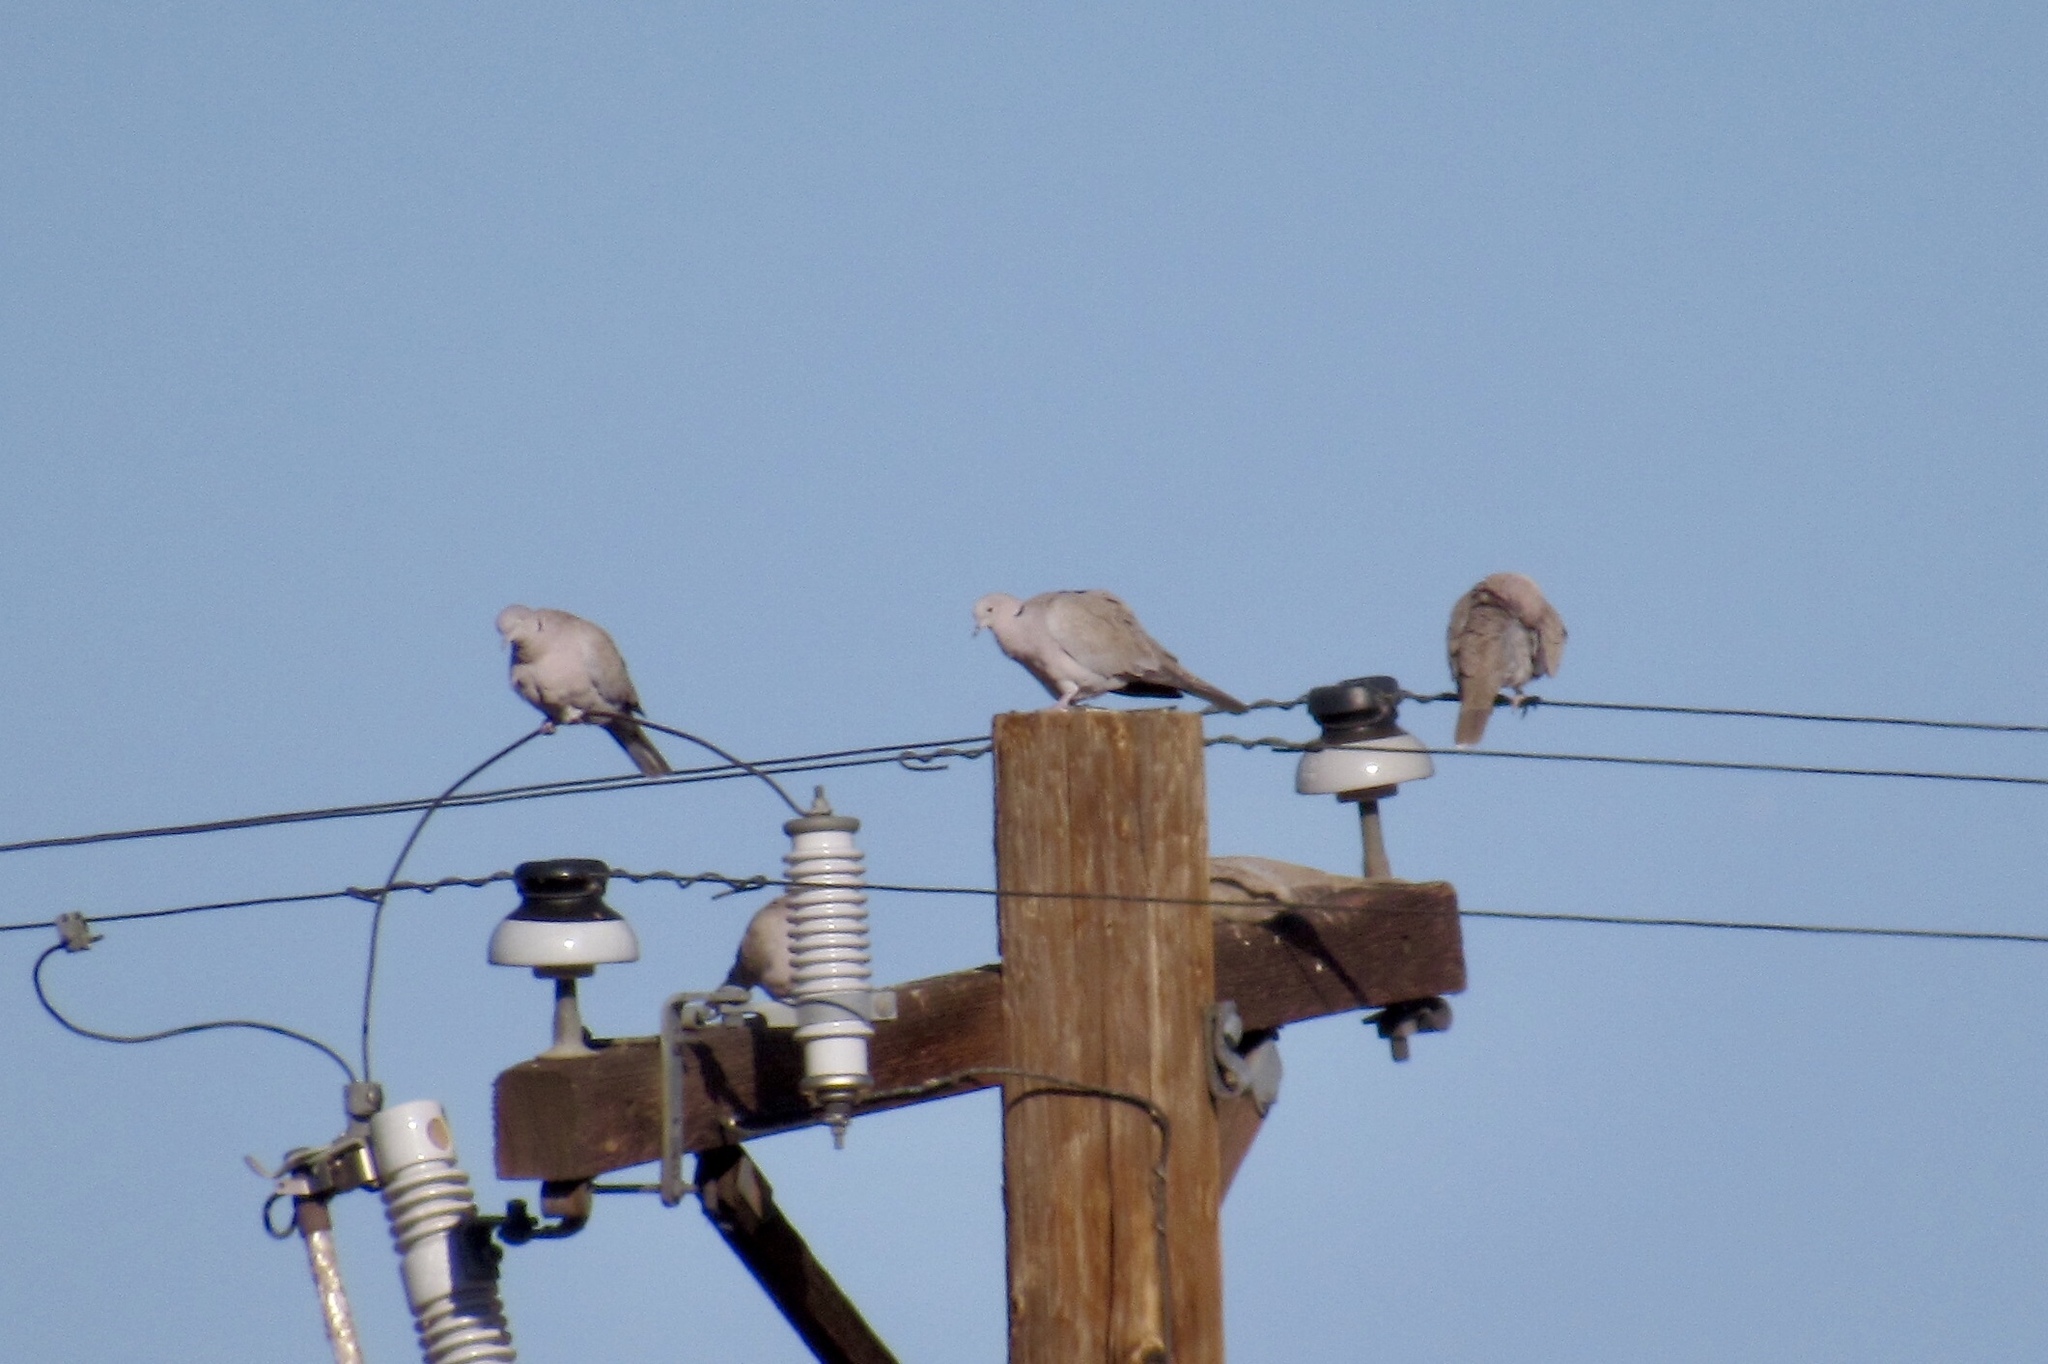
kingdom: Animalia
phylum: Chordata
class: Aves
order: Columbiformes
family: Columbidae
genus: Streptopelia
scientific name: Streptopelia decaocto
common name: Eurasian collared dove
